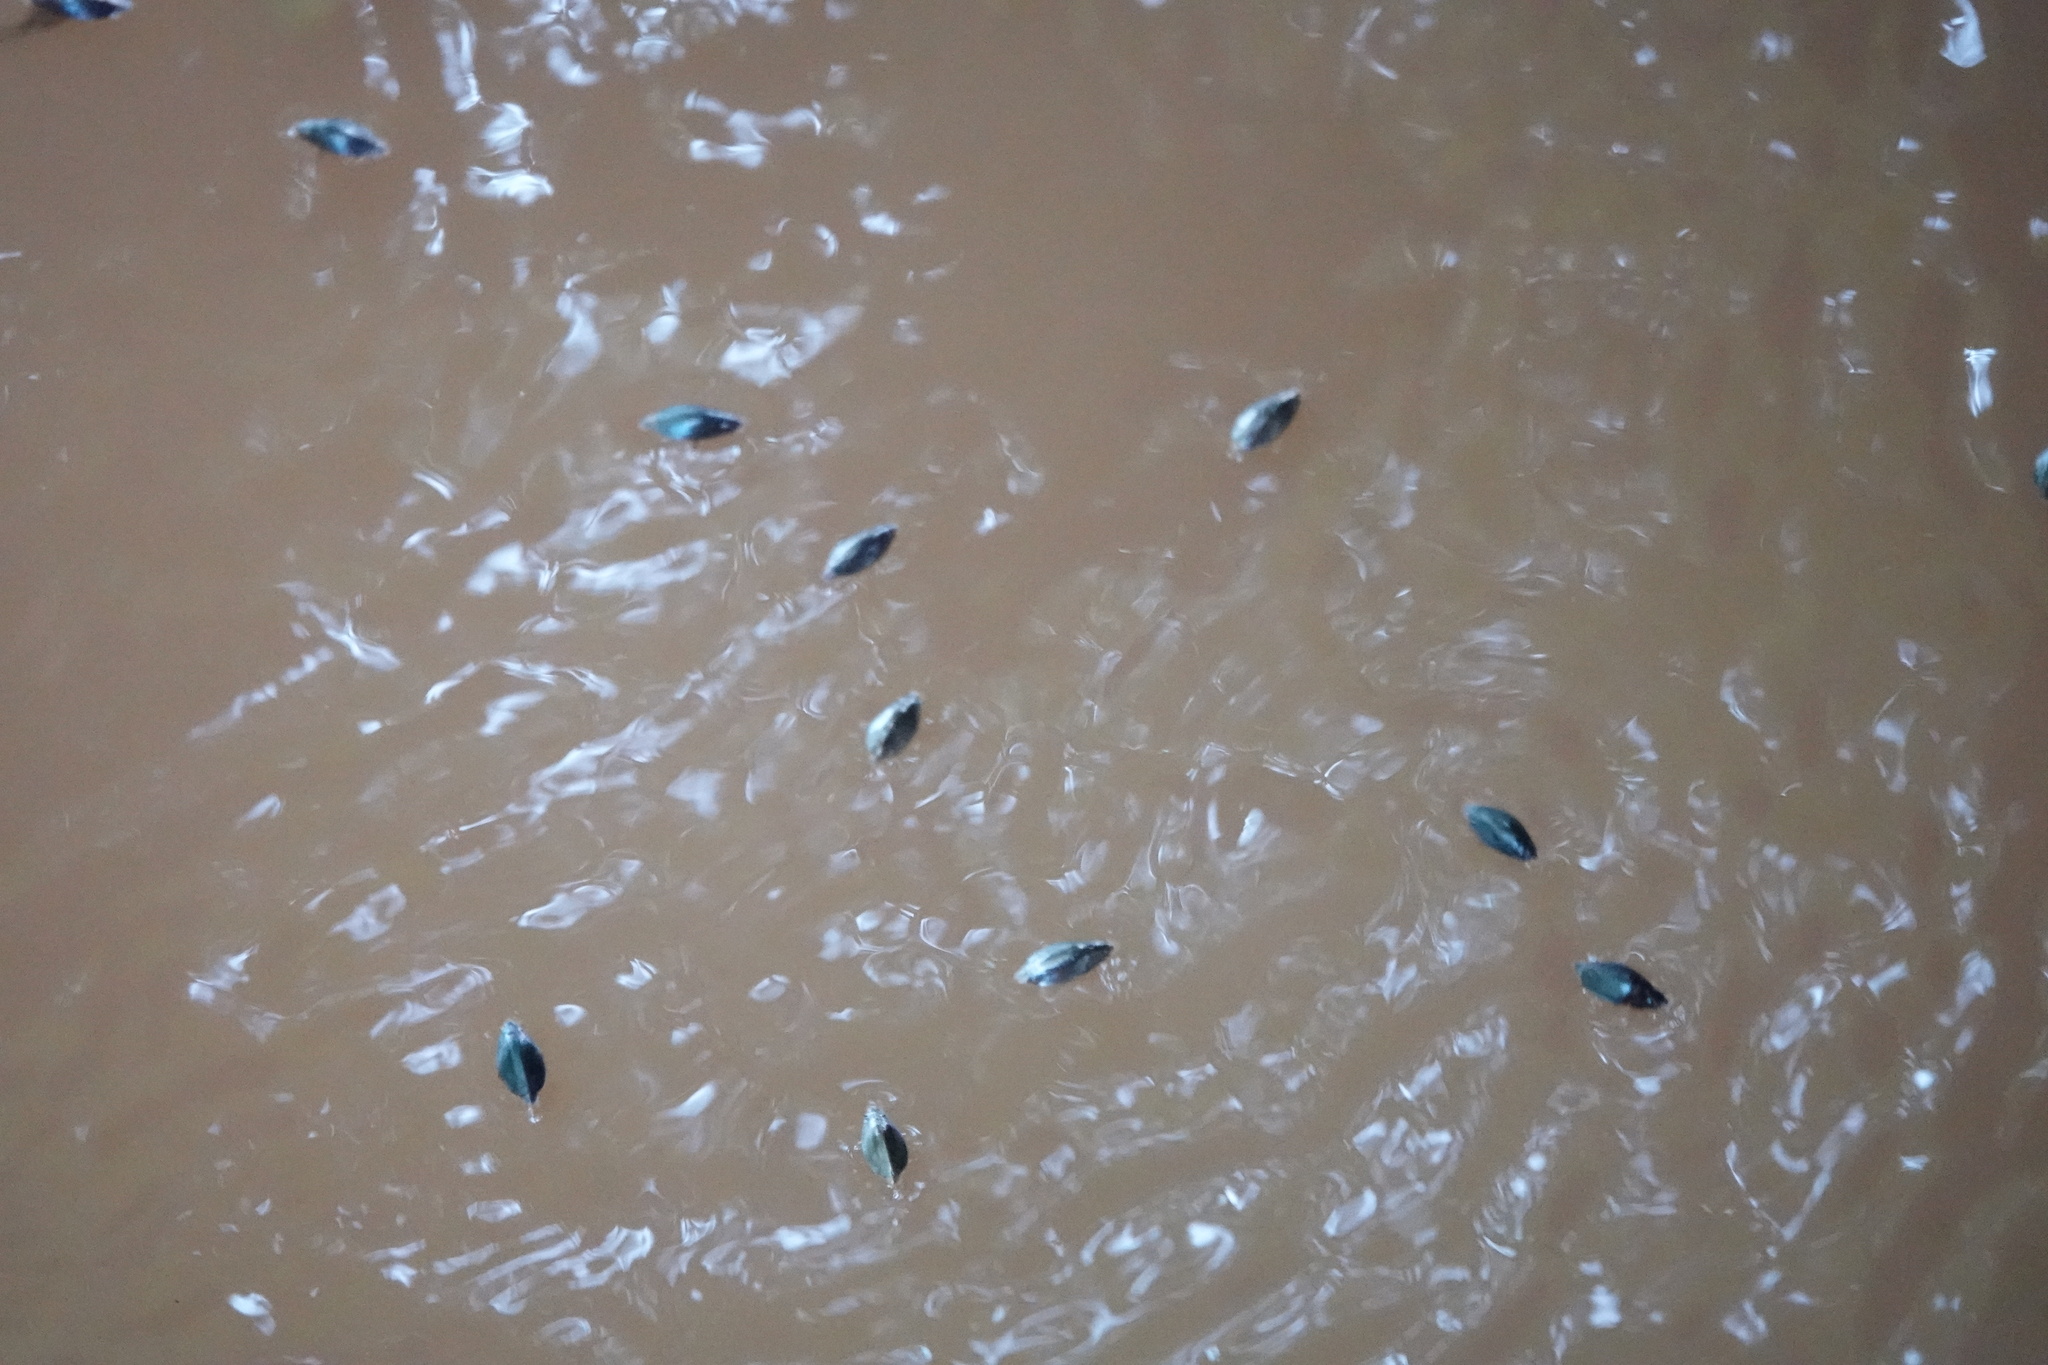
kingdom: Animalia
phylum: Arthropoda
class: Insecta
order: Coleoptera
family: Gyrinidae
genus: Dineutus
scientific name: Dineutus
